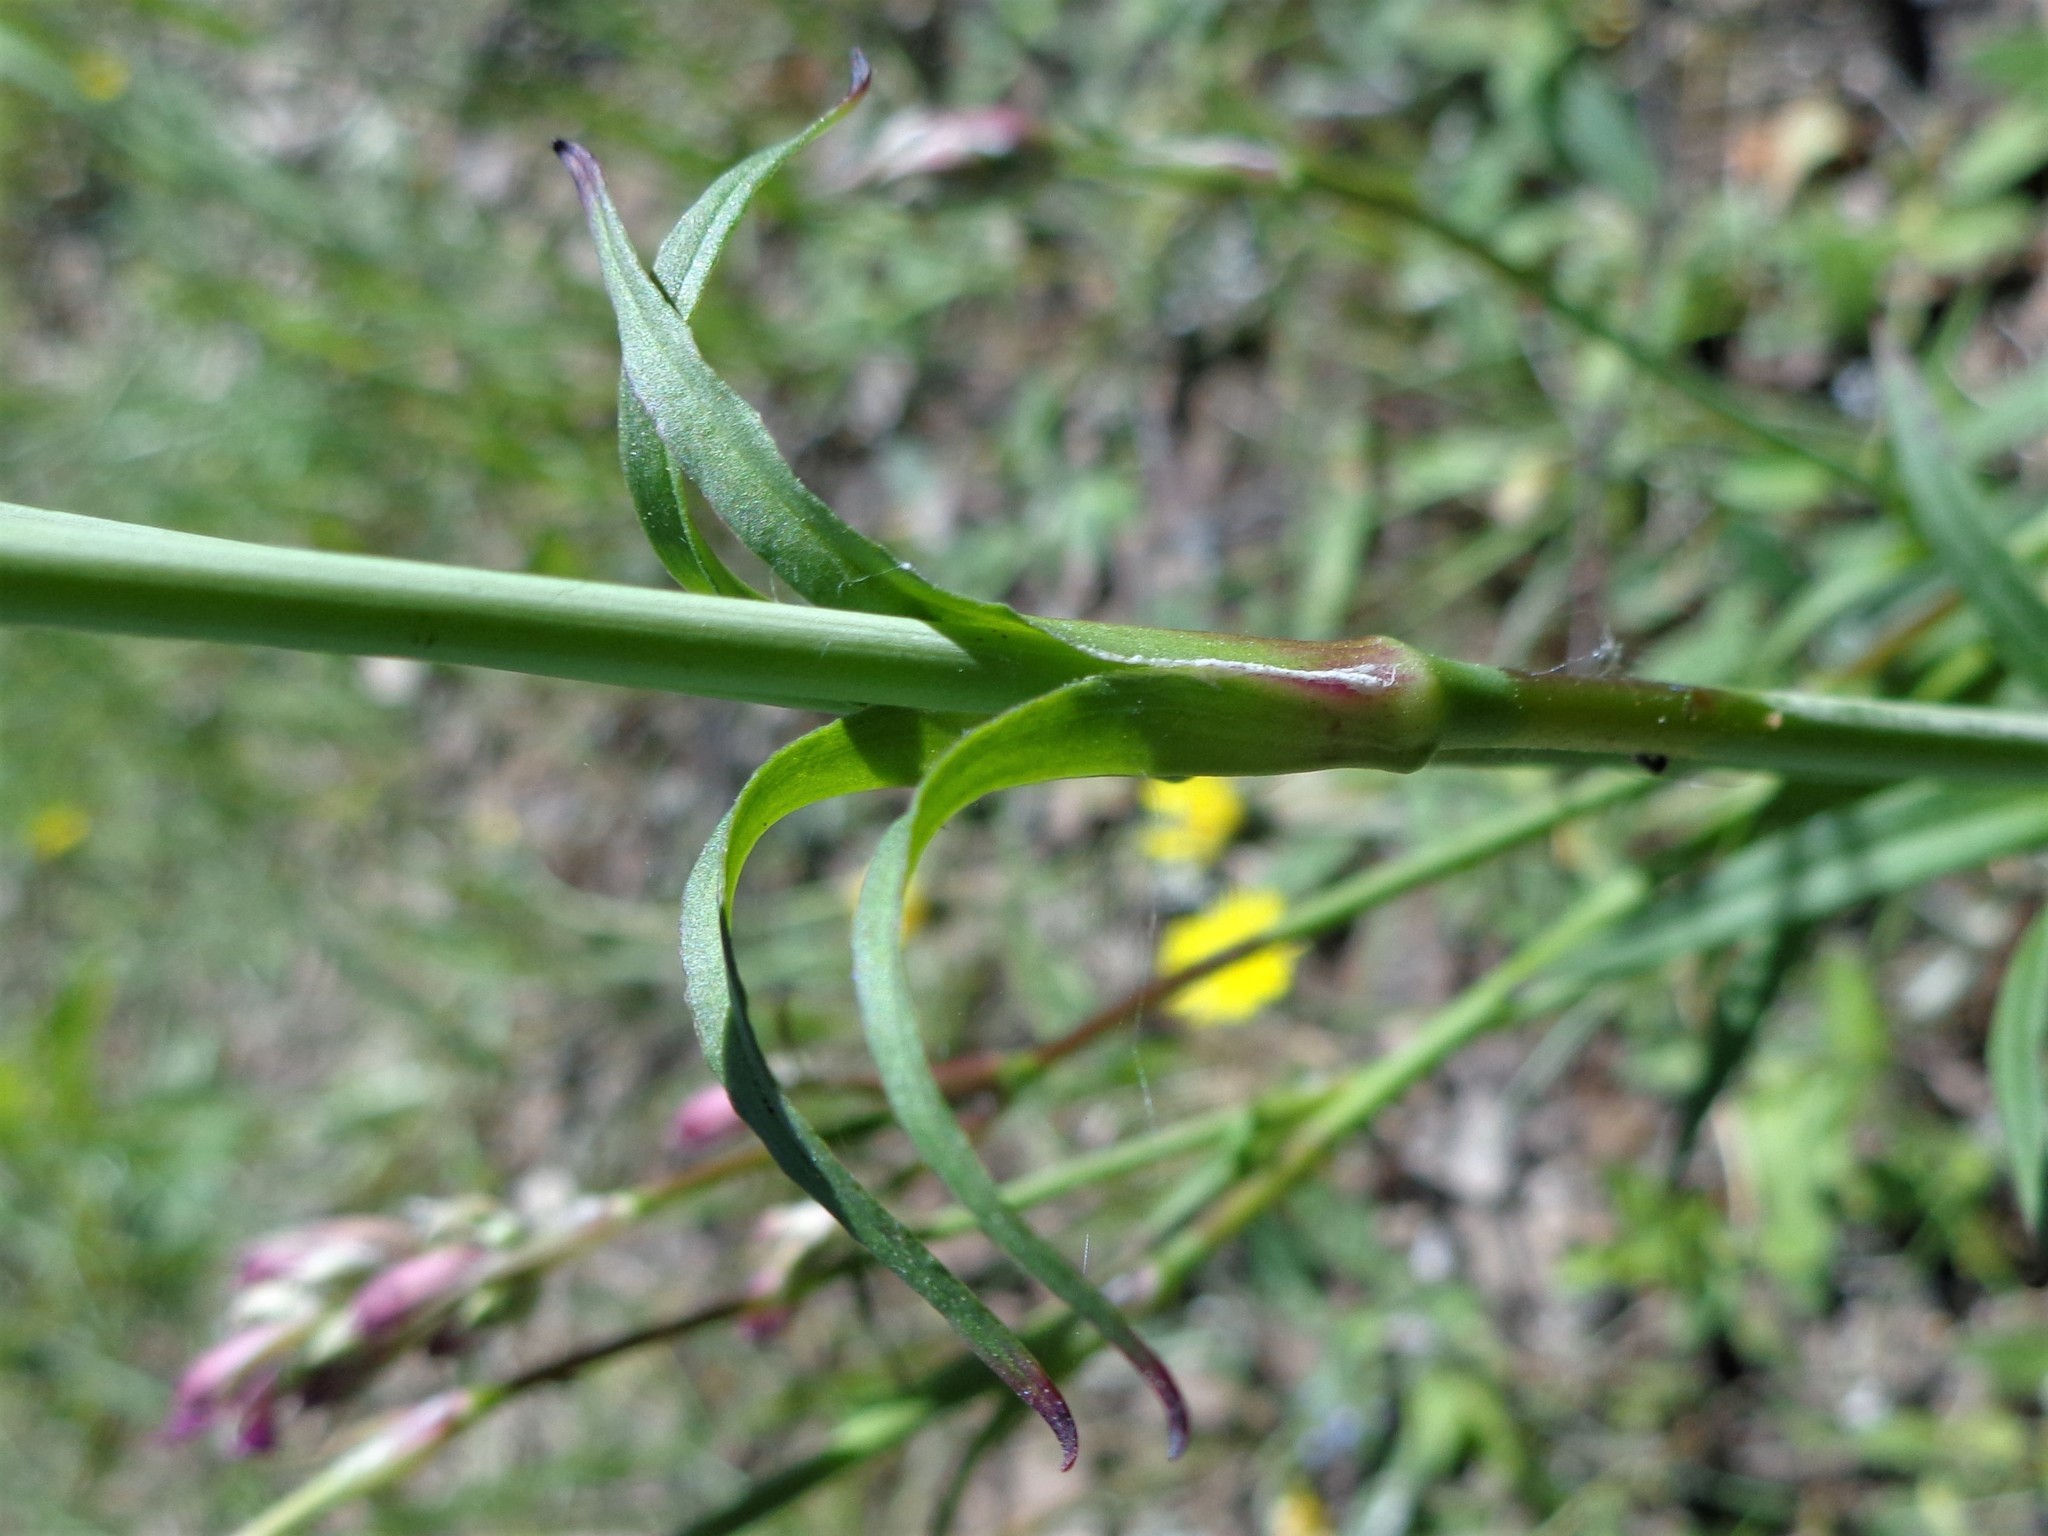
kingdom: Plantae
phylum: Tracheophyta
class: Magnoliopsida
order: Caryophyllales
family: Caryophyllaceae
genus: Viscaria
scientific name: Viscaria vulgaris
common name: Clammy campion
